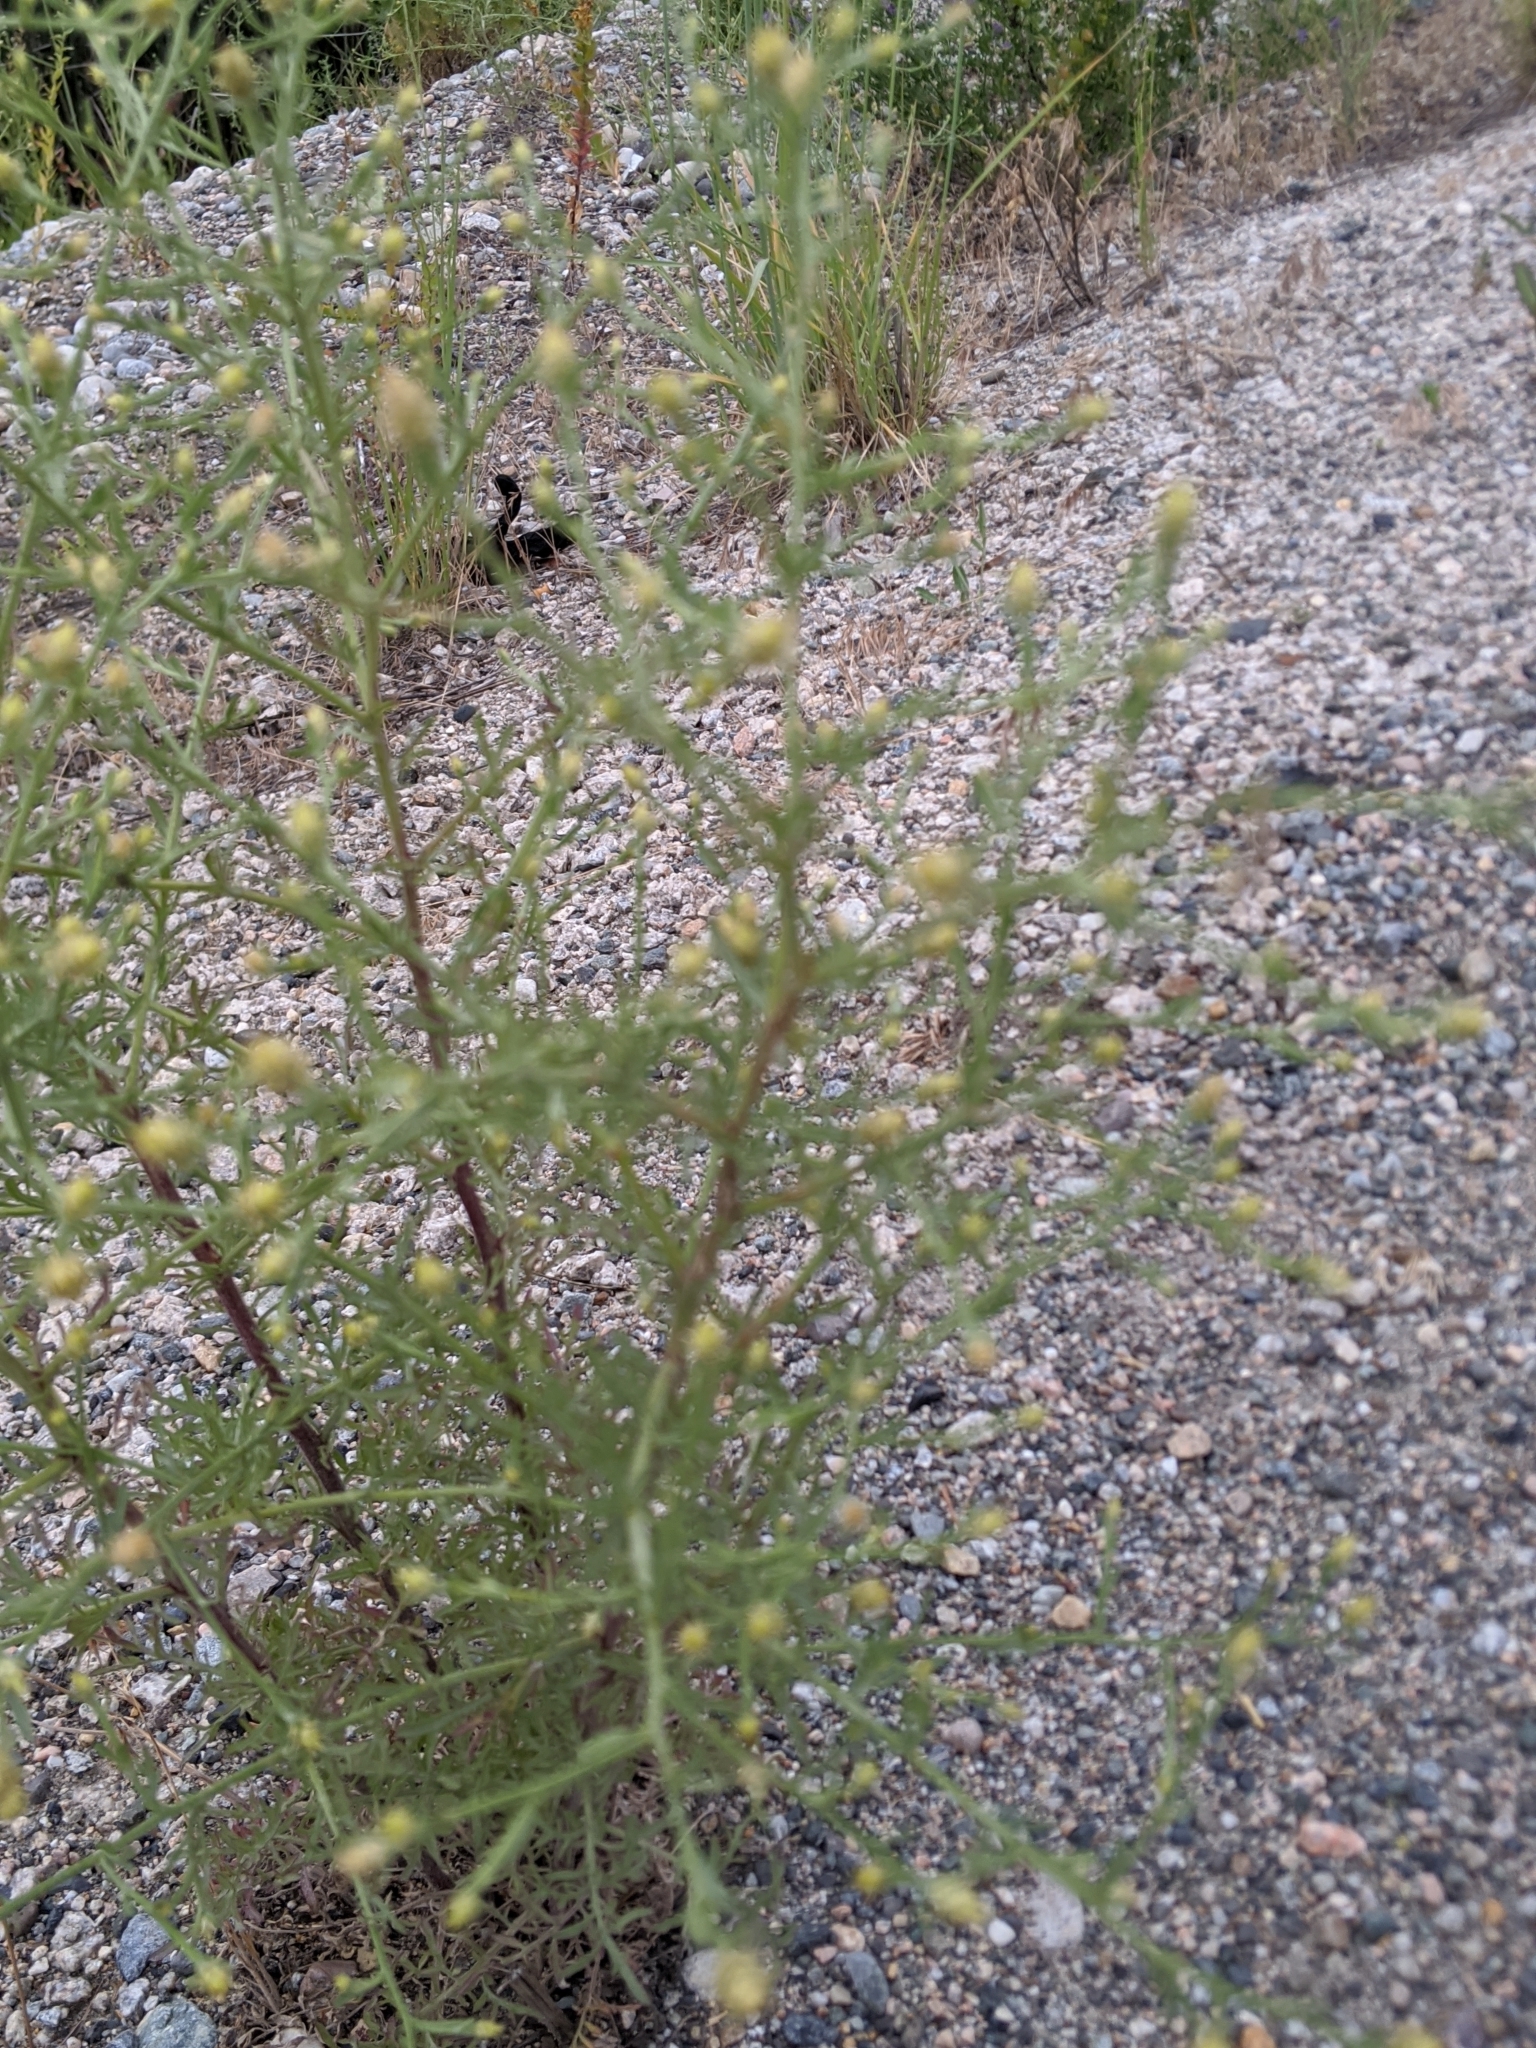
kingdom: Plantae
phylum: Tracheophyta
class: Magnoliopsida
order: Asterales
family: Asteraceae
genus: Centaurea
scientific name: Centaurea diffusa
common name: Diffuse knapweed
